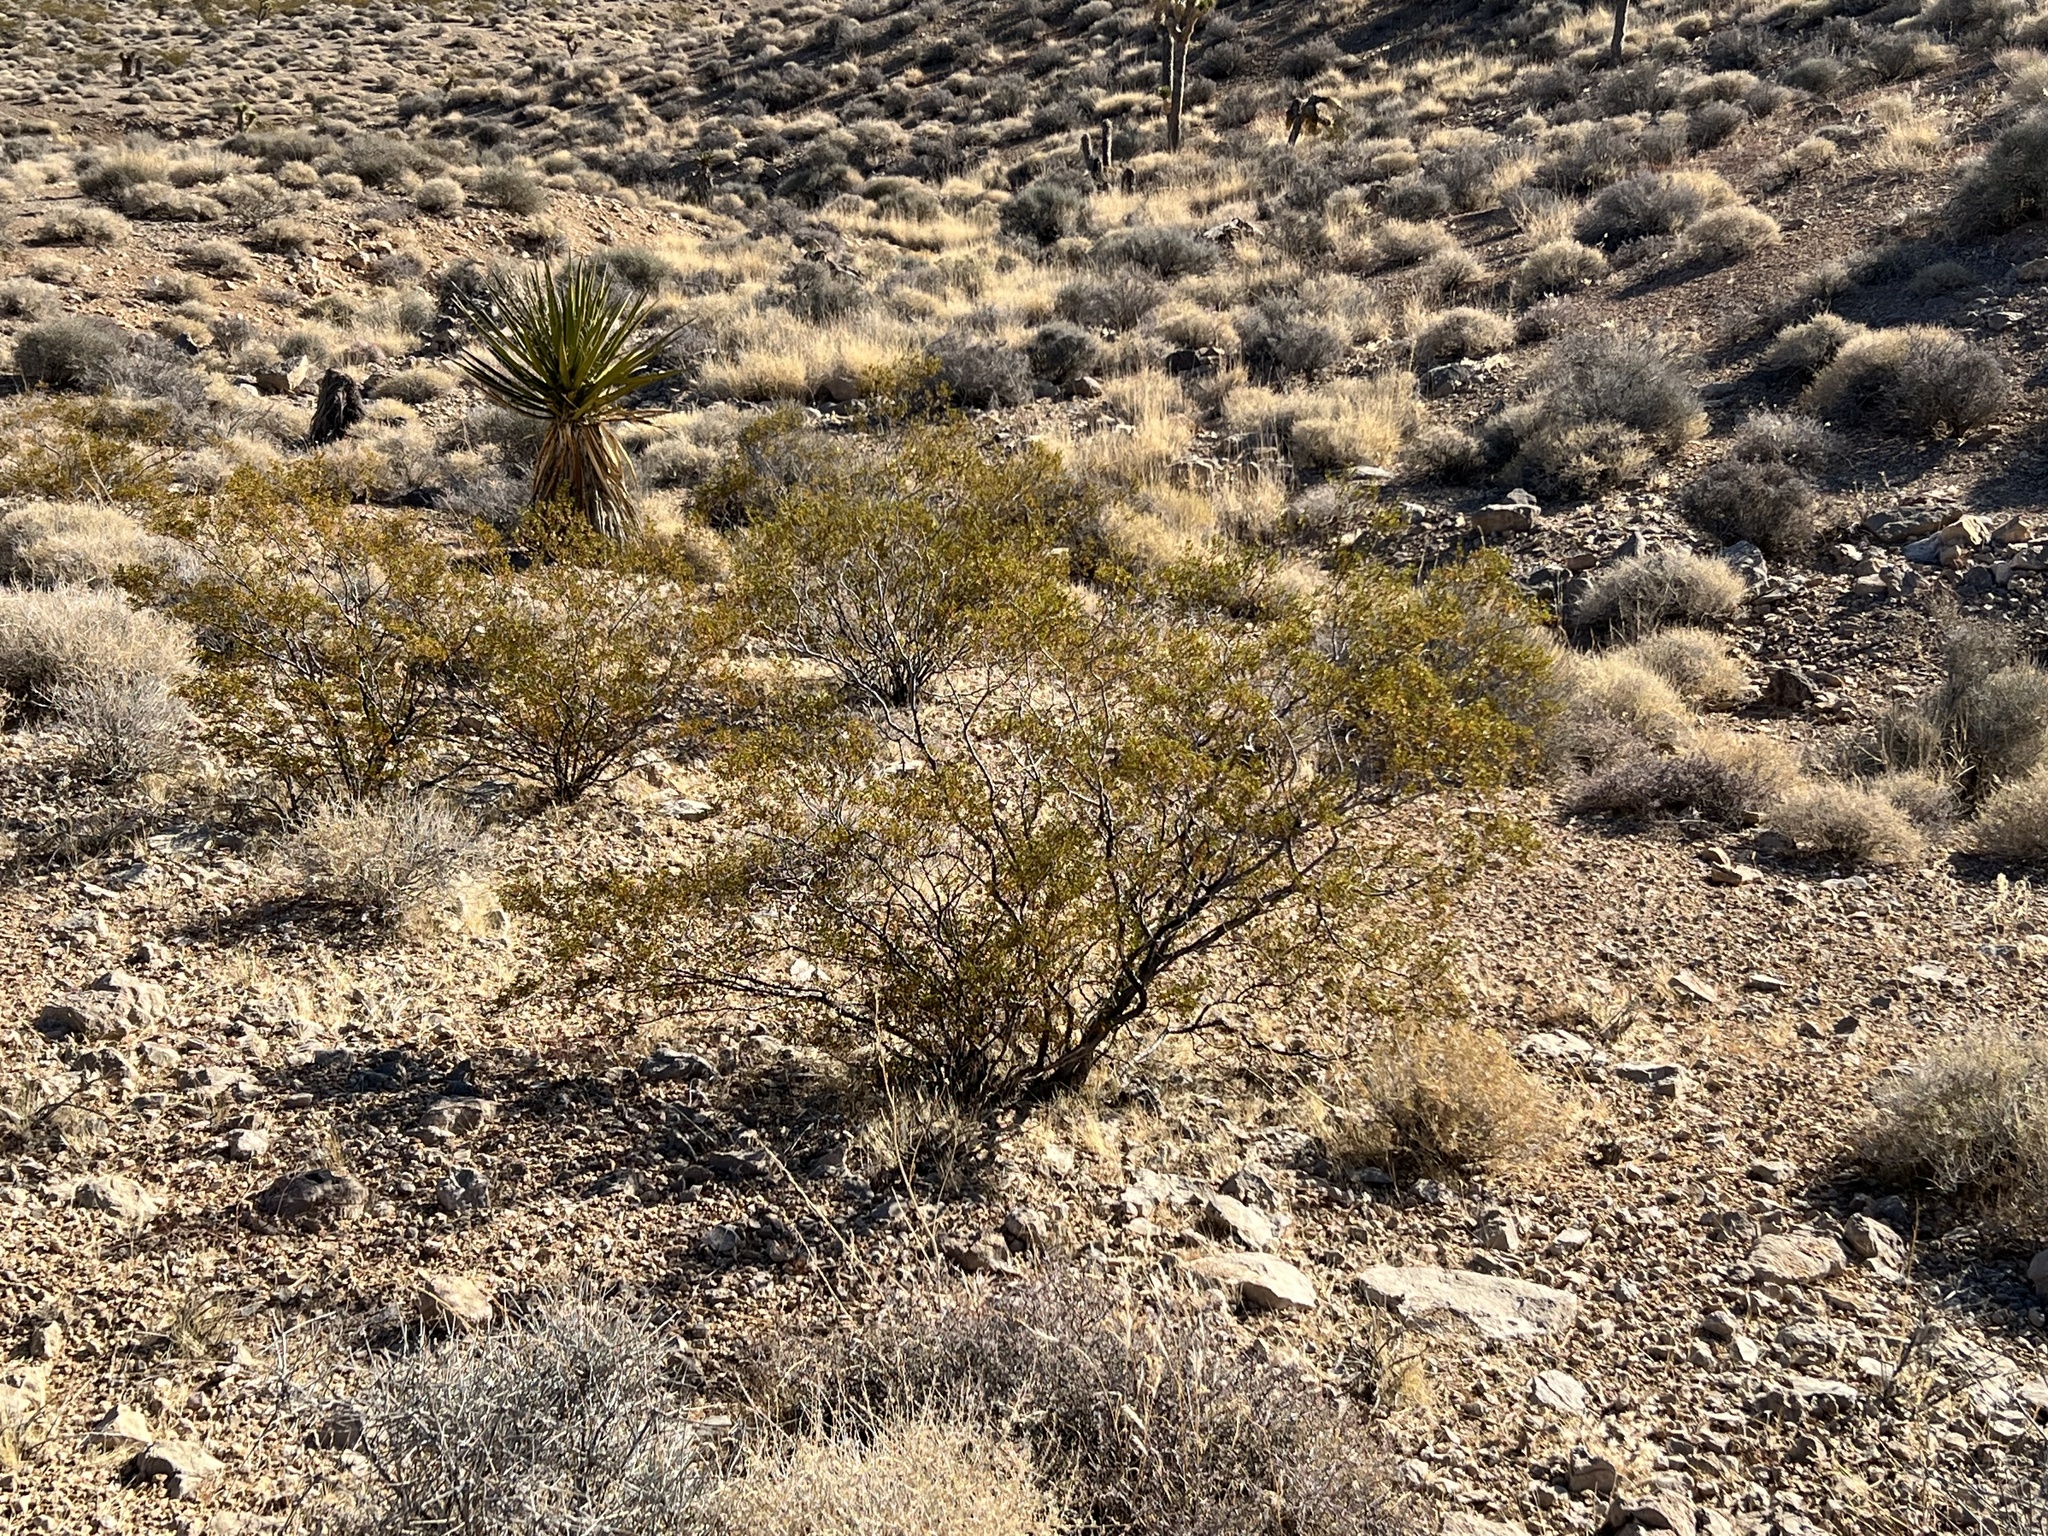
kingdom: Plantae
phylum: Tracheophyta
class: Magnoliopsida
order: Zygophyllales
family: Zygophyllaceae
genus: Larrea
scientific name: Larrea tridentata
